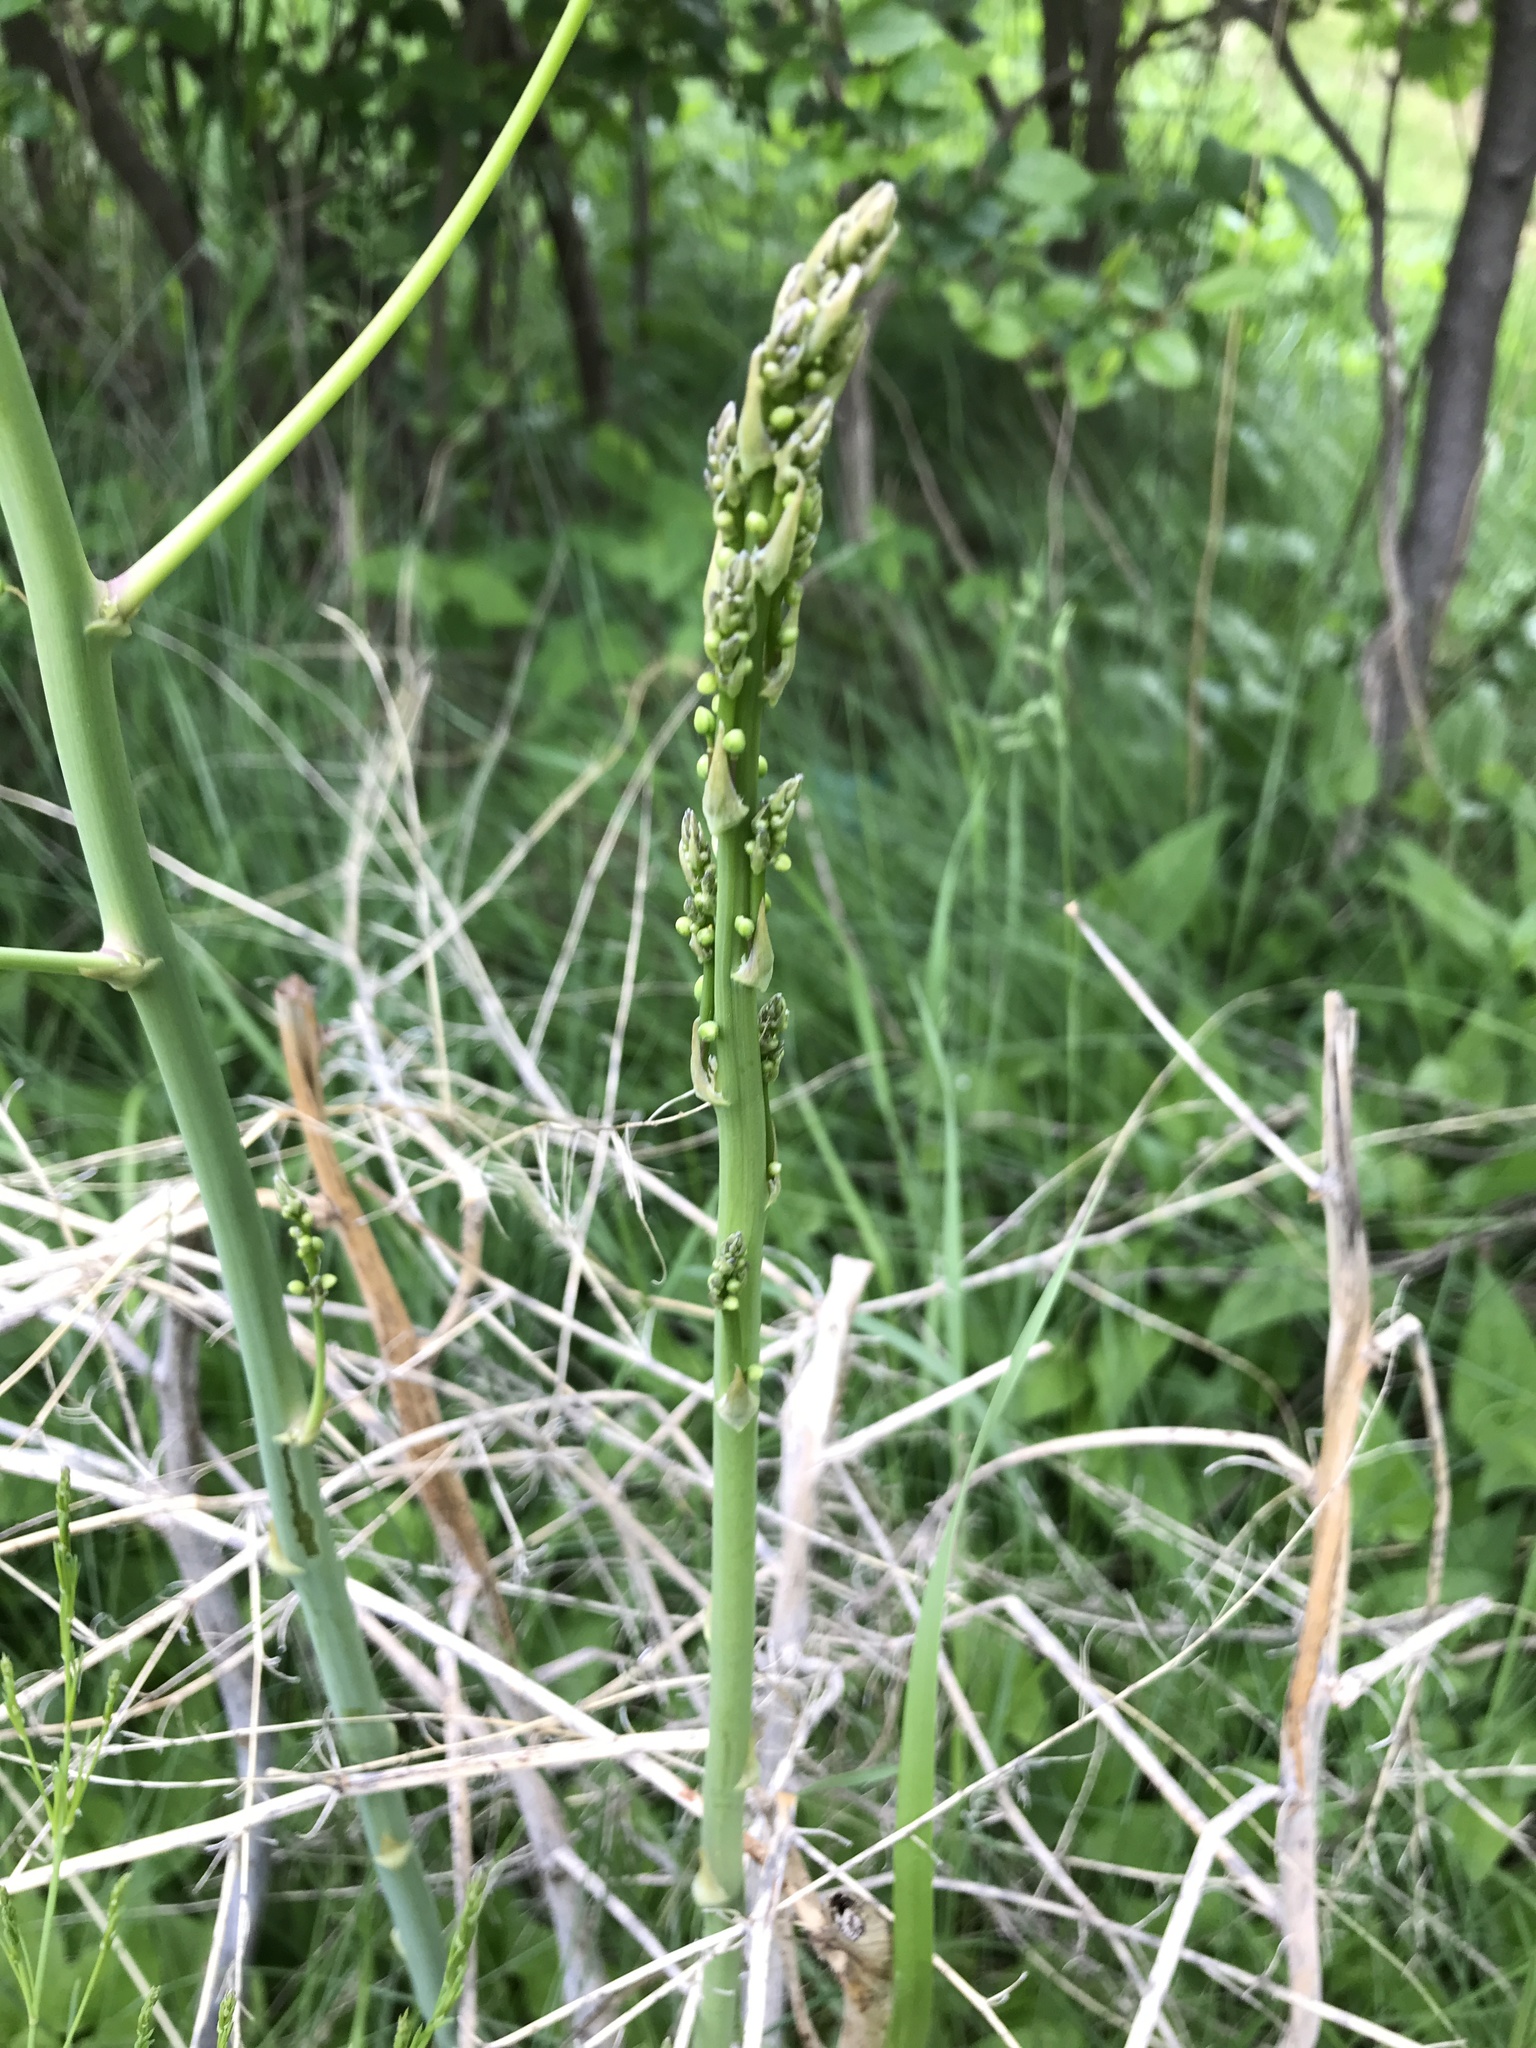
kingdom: Plantae
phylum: Tracheophyta
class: Liliopsida
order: Asparagales
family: Asparagaceae
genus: Asparagus
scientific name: Asparagus officinalis
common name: Garden asparagus
